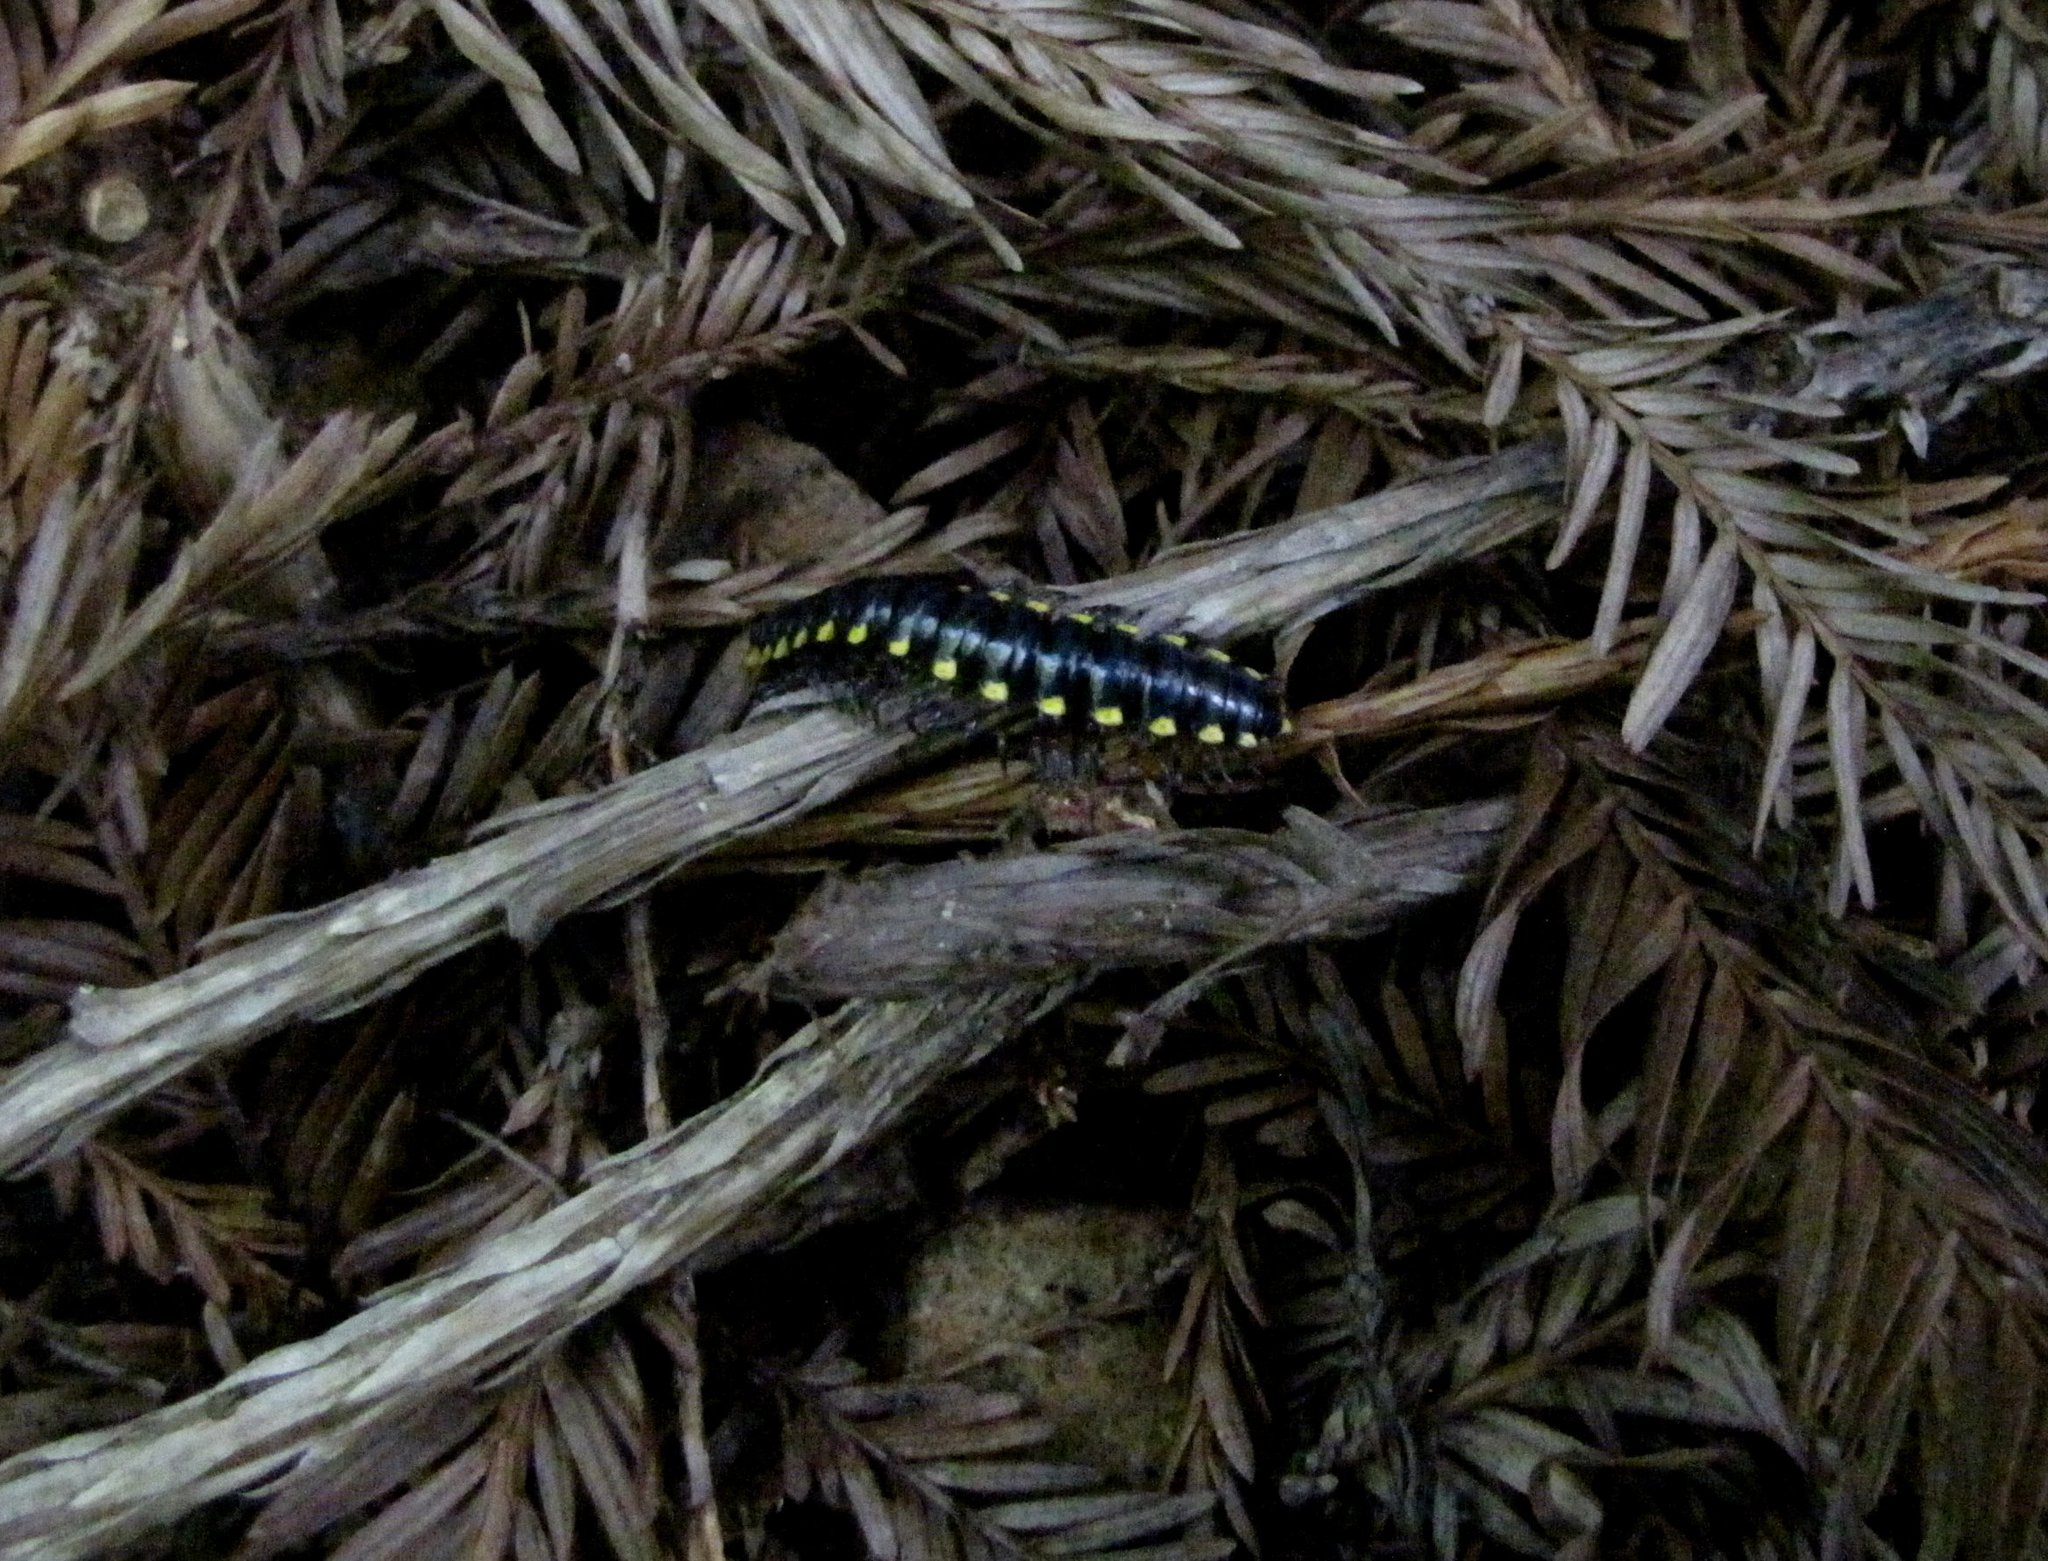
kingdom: Animalia
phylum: Arthropoda
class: Diplopoda
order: Polydesmida
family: Xystodesmidae
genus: Harpaphe
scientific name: Harpaphe haydeniana
